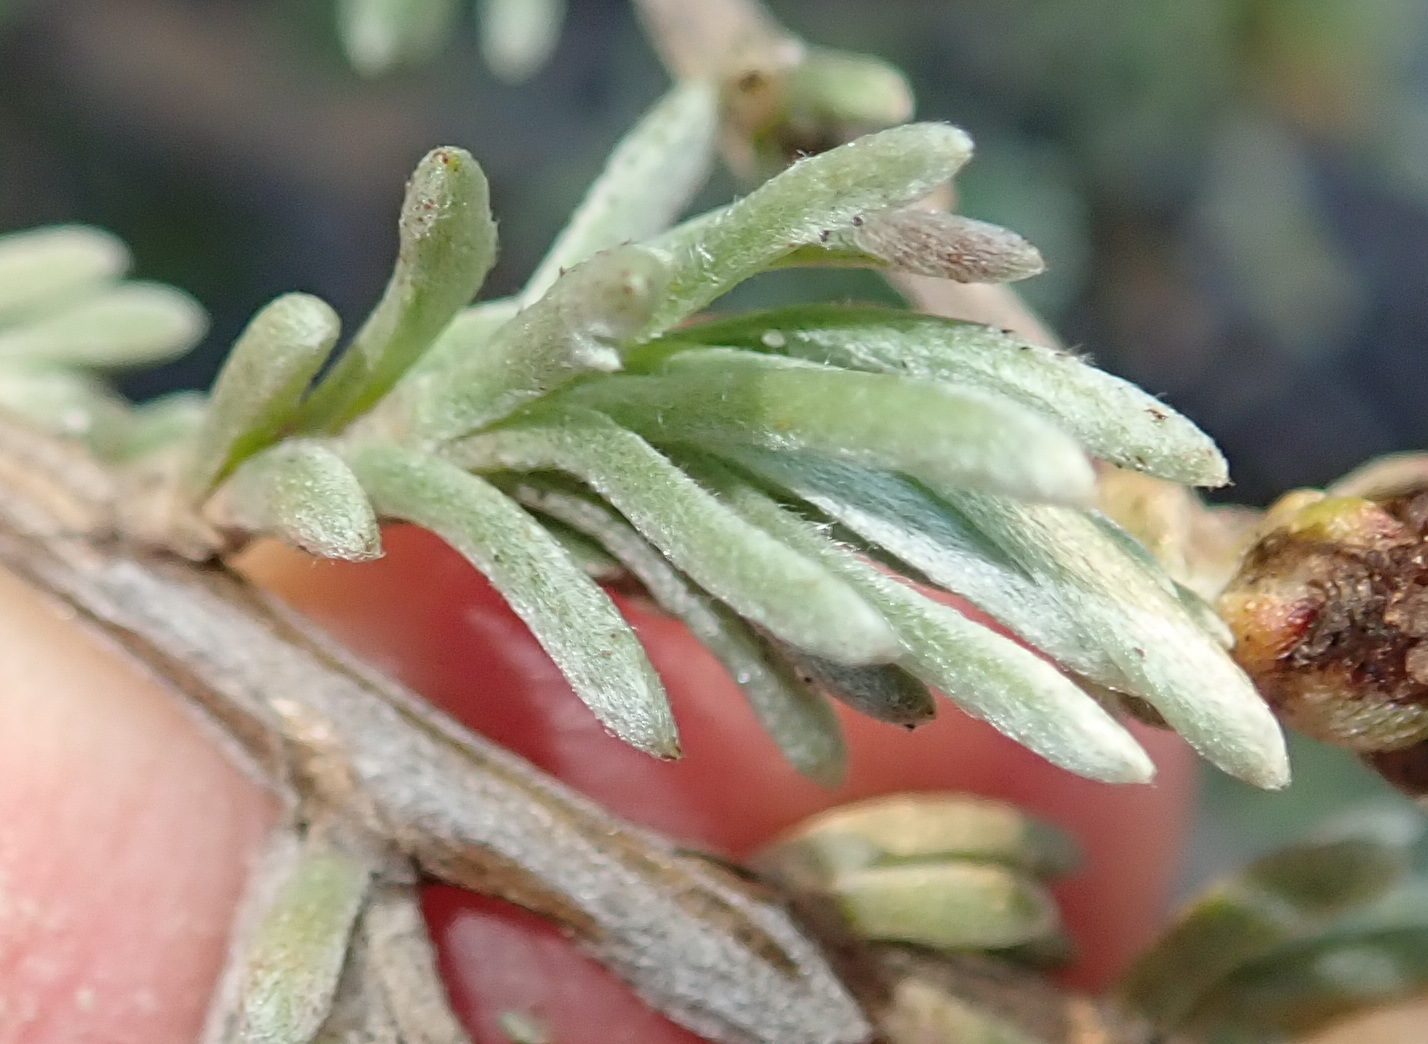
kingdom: Plantae
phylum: Tracheophyta
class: Magnoliopsida
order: Asterales
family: Asteraceae
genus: Eriocephalus
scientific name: Eriocephalus africanus
